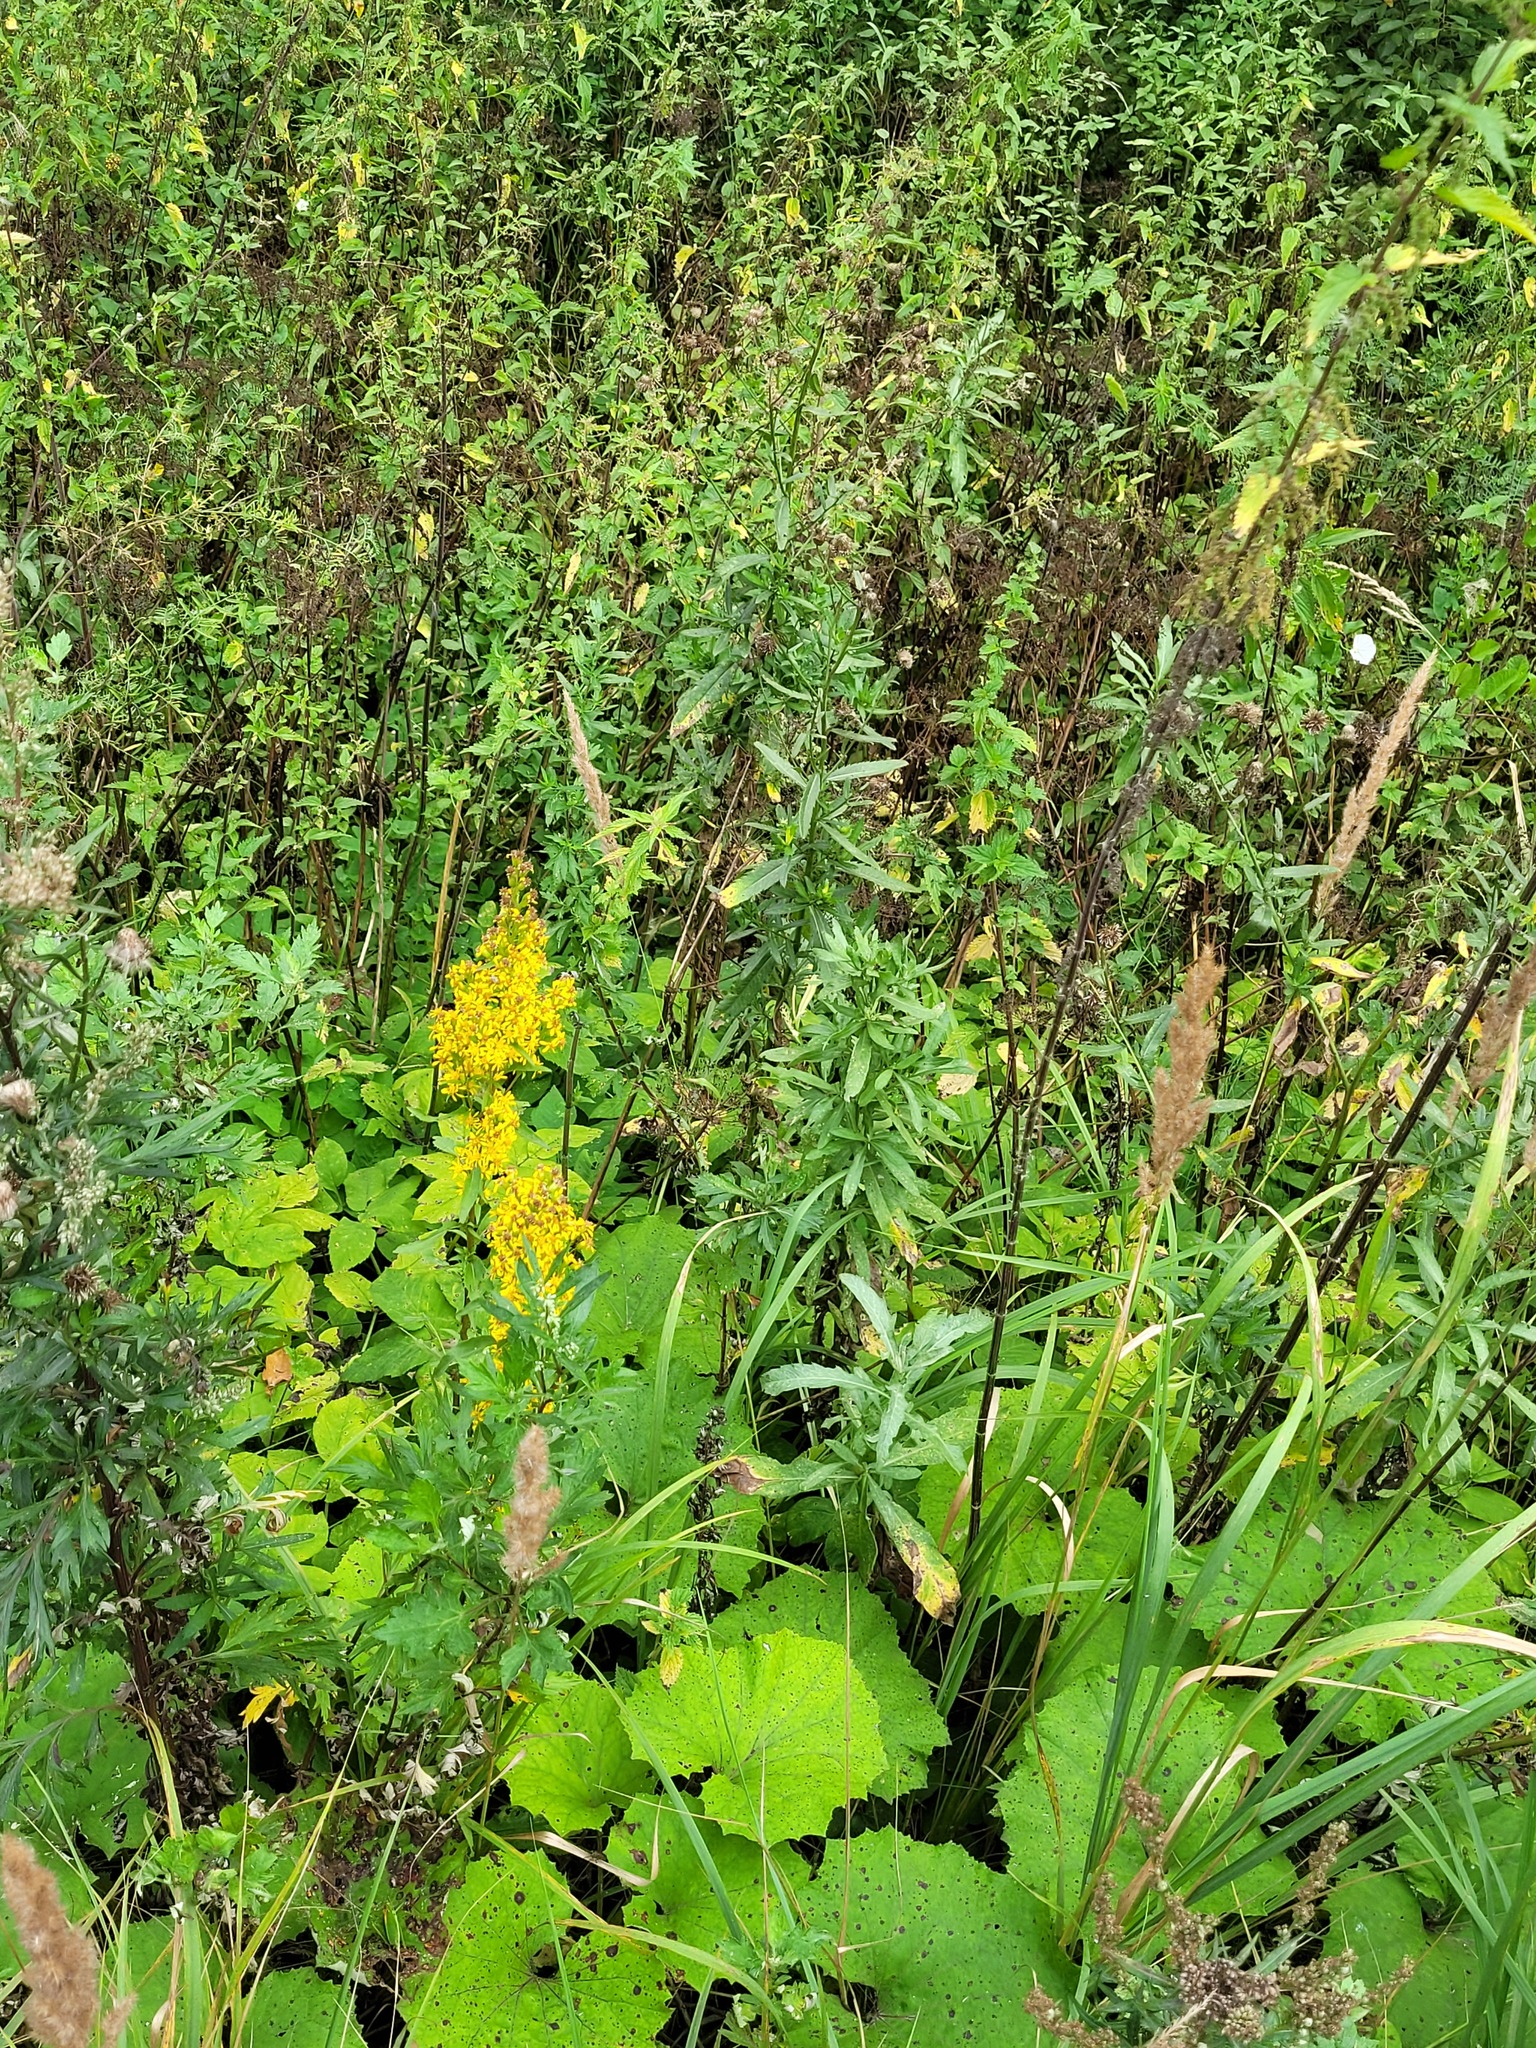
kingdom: Plantae
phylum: Tracheophyta
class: Magnoliopsida
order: Asterales
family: Asteraceae
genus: Cirsium
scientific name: Cirsium arvense
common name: Creeping thistle
